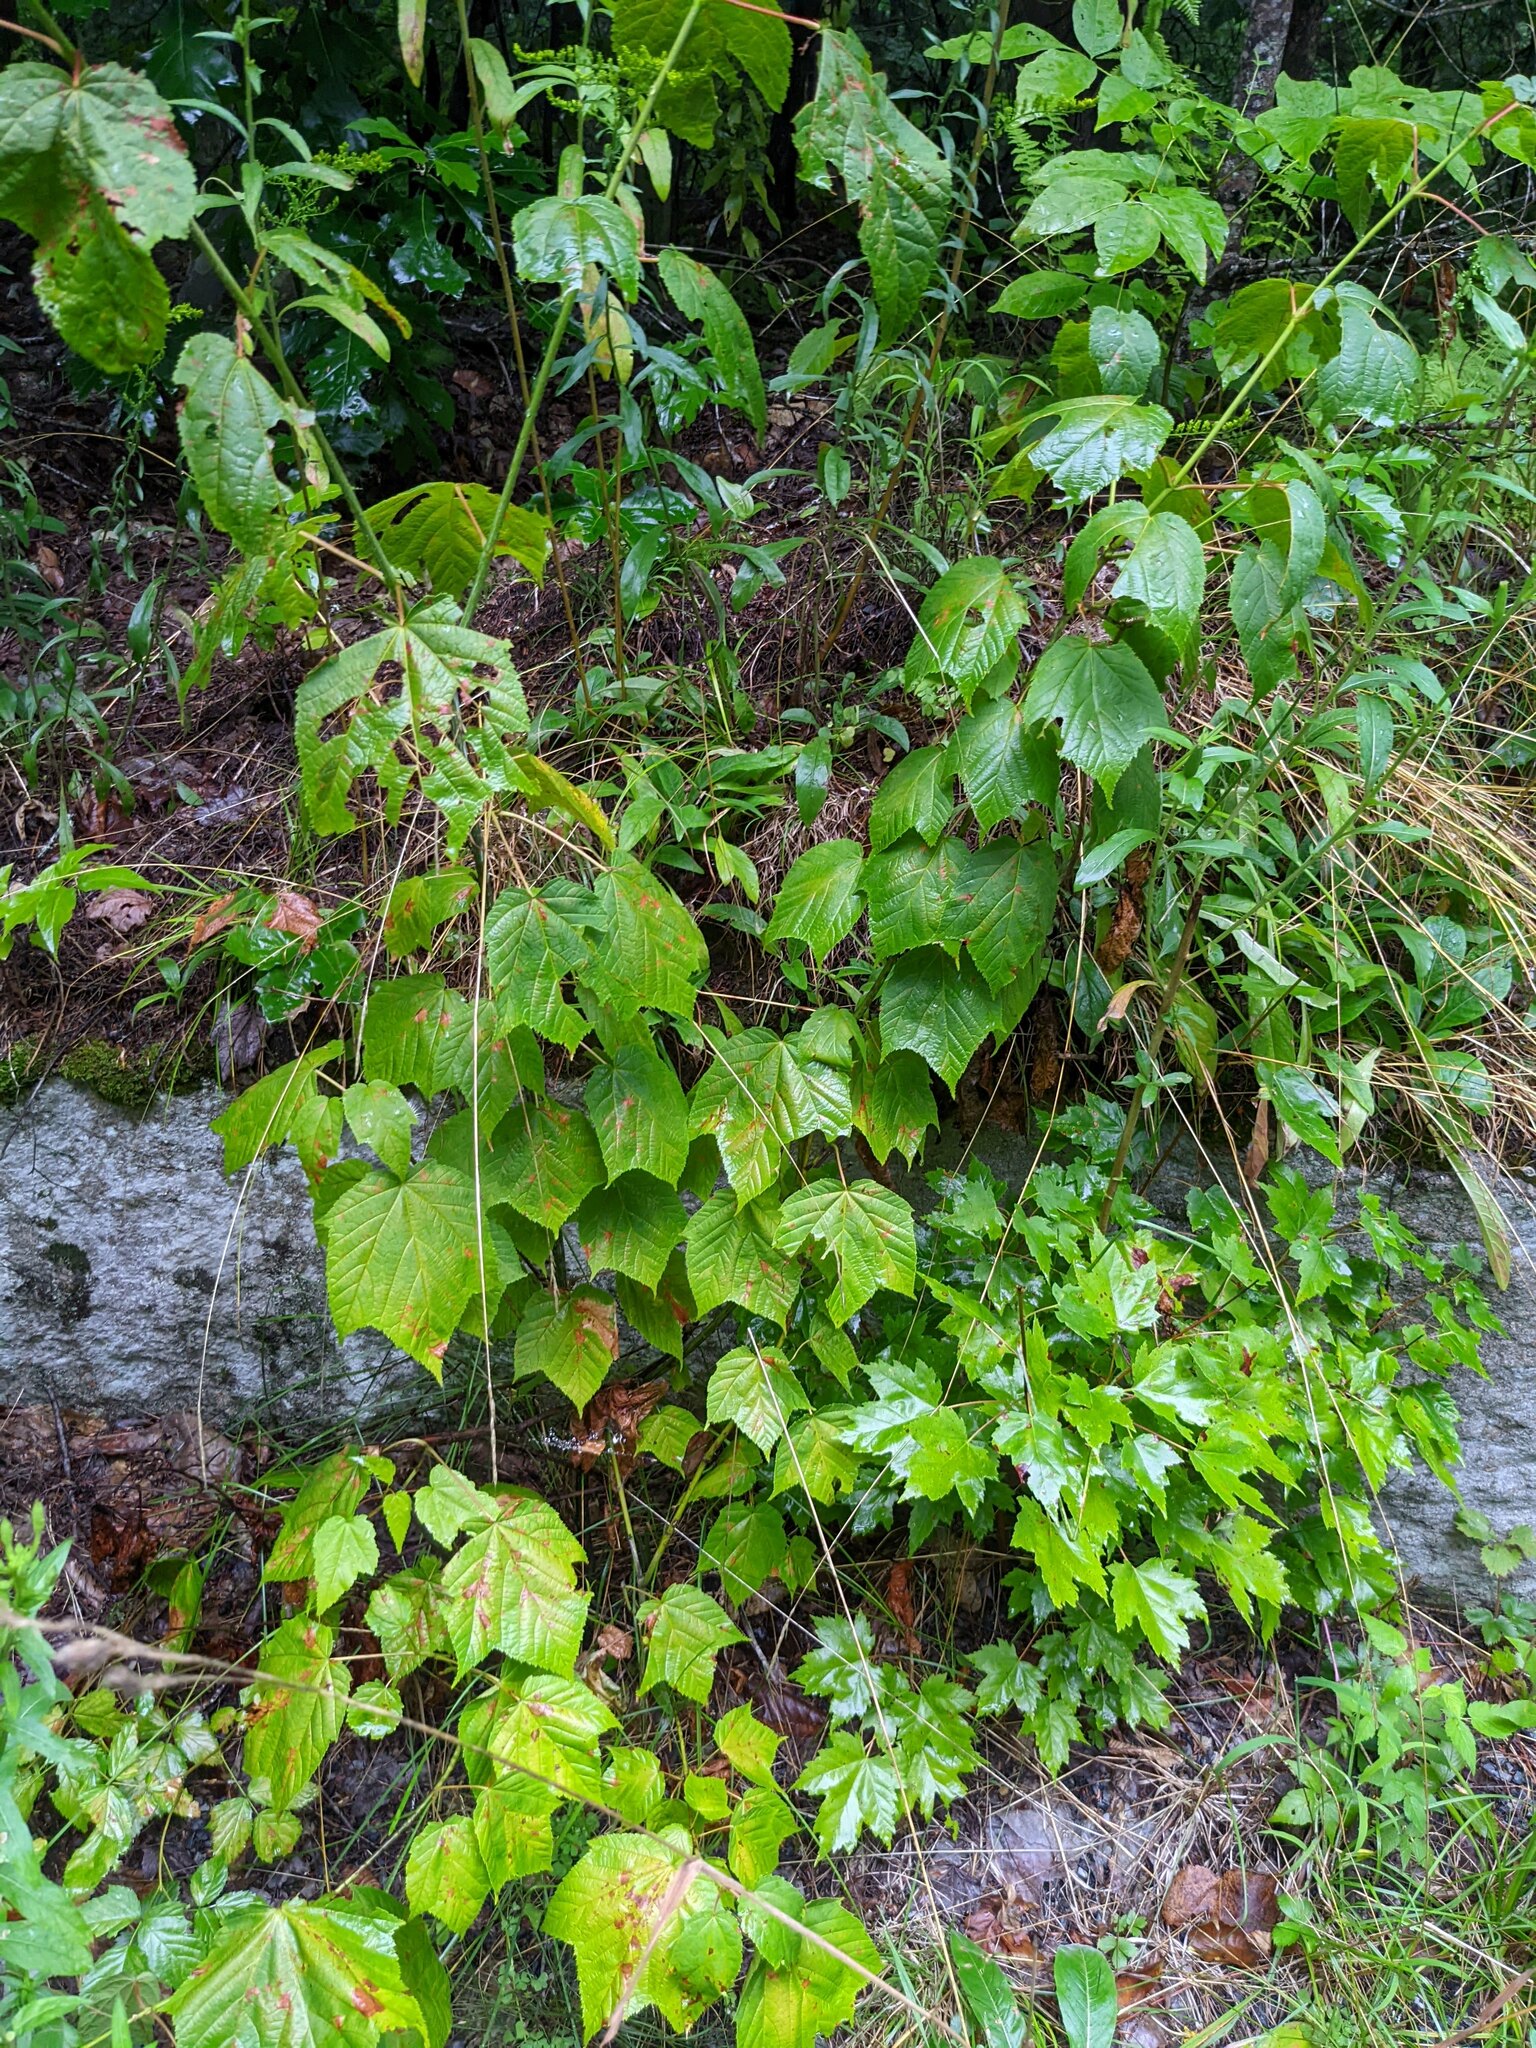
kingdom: Plantae
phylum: Tracheophyta
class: Magnoliopsida
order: Sapindales
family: Sapindaceae
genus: Acer
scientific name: Acer pensylvanicum
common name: Moosewood
